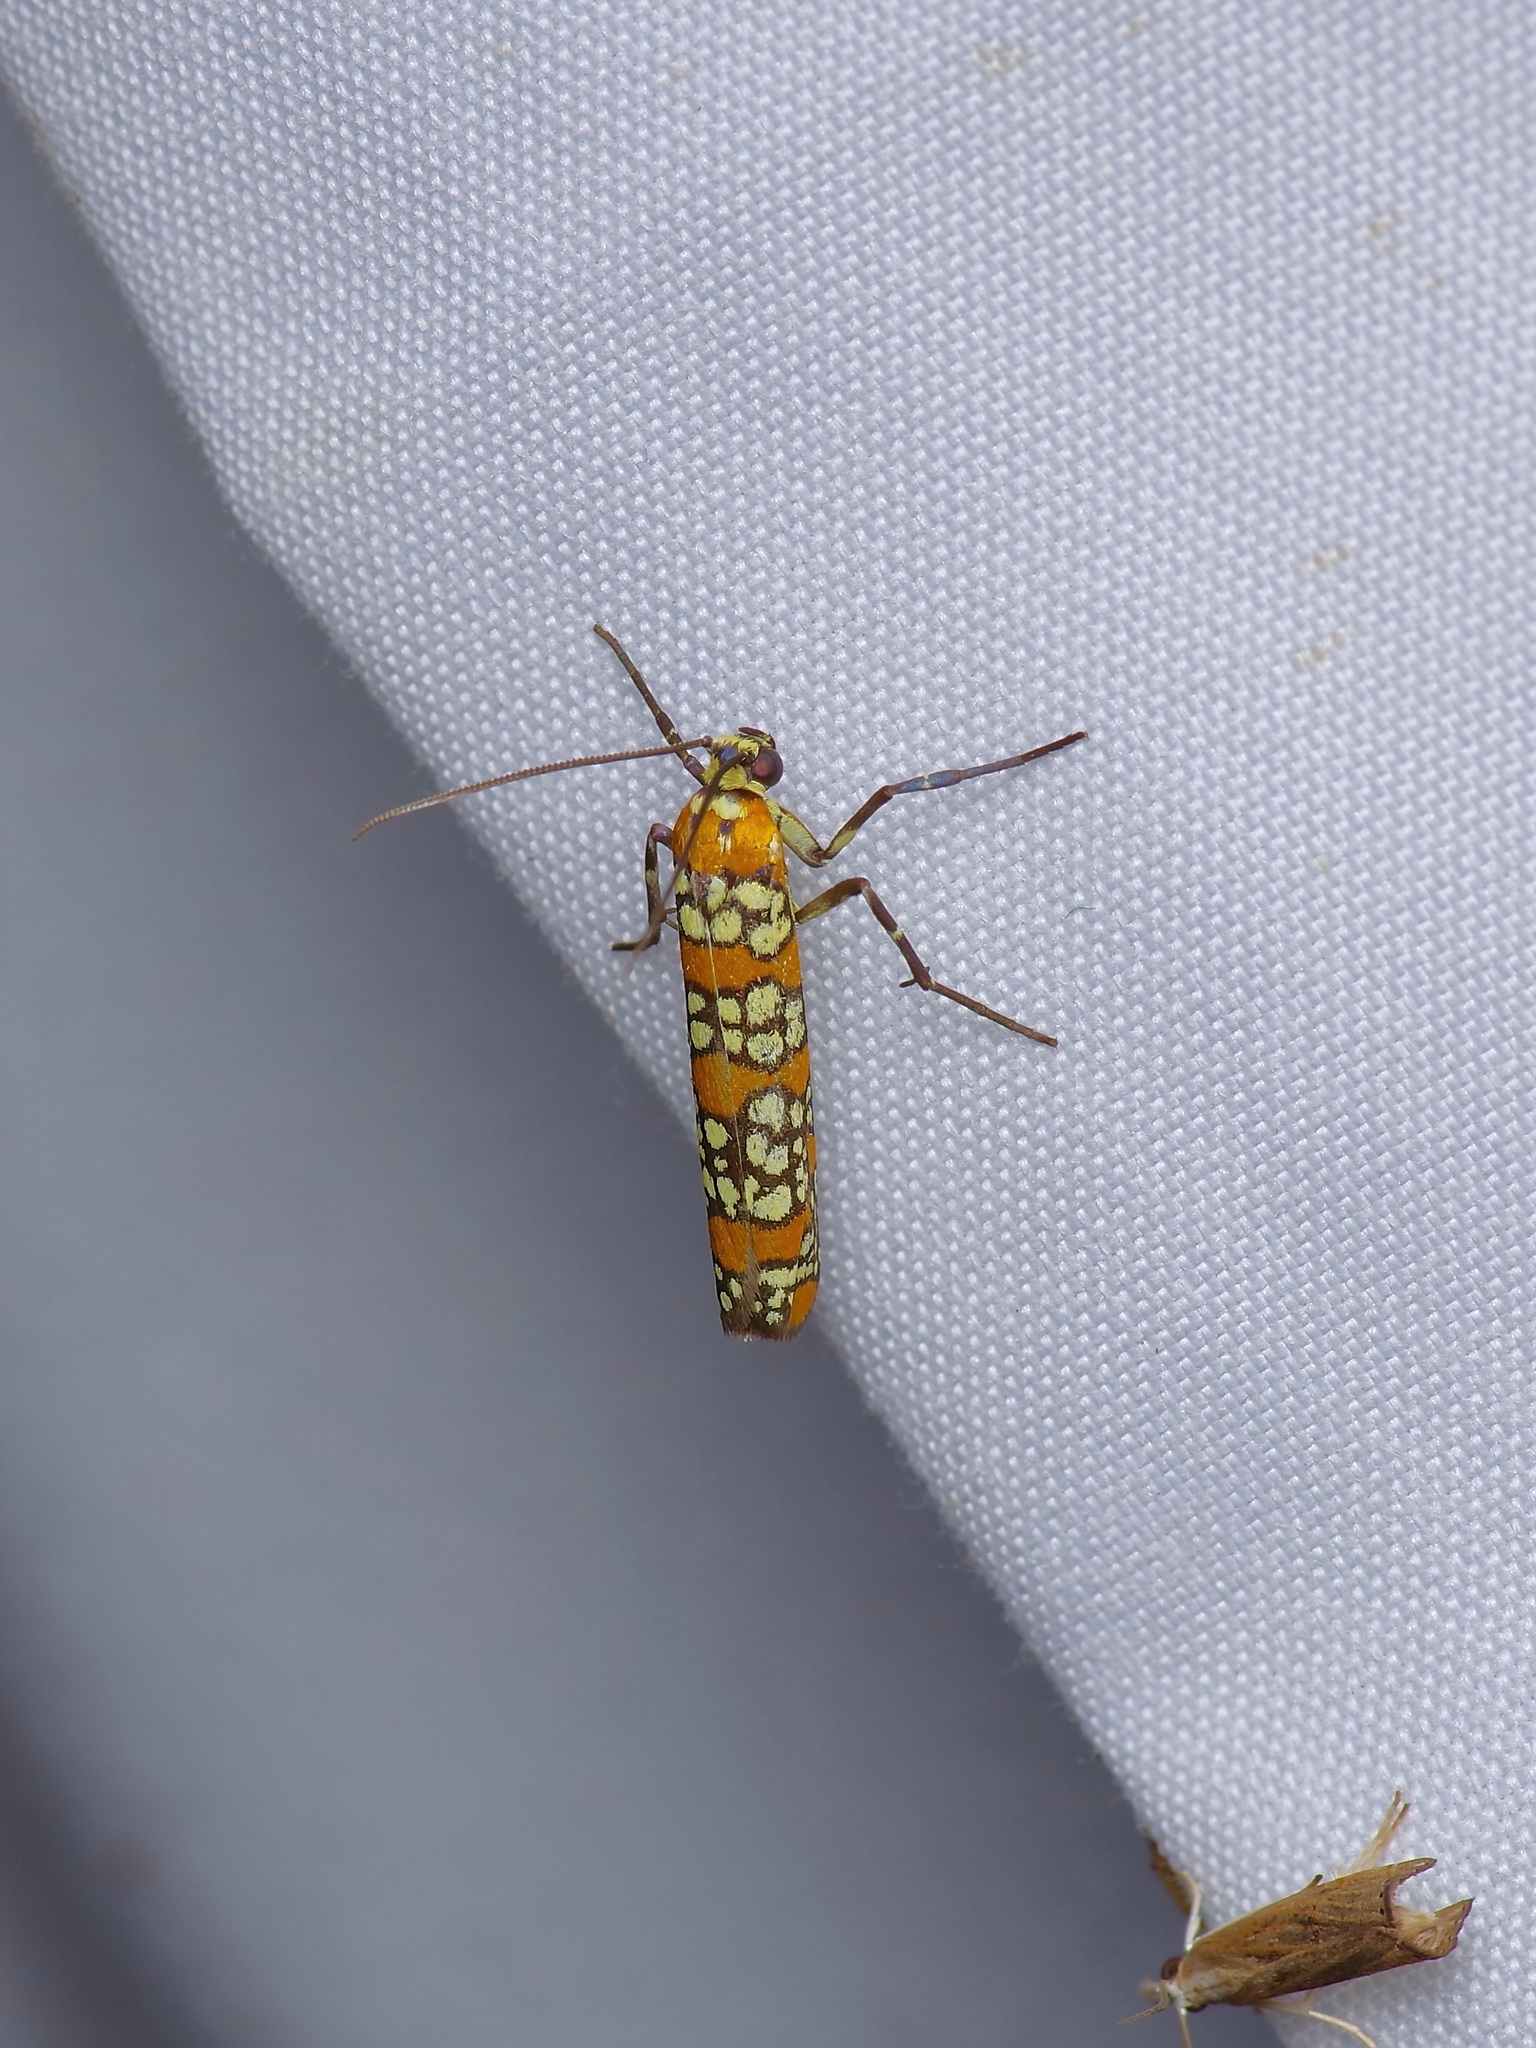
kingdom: Animalia
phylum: Arthropoda
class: Insecta
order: Lepidoptera
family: Attevidae
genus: Atteva
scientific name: Atteva punctella
